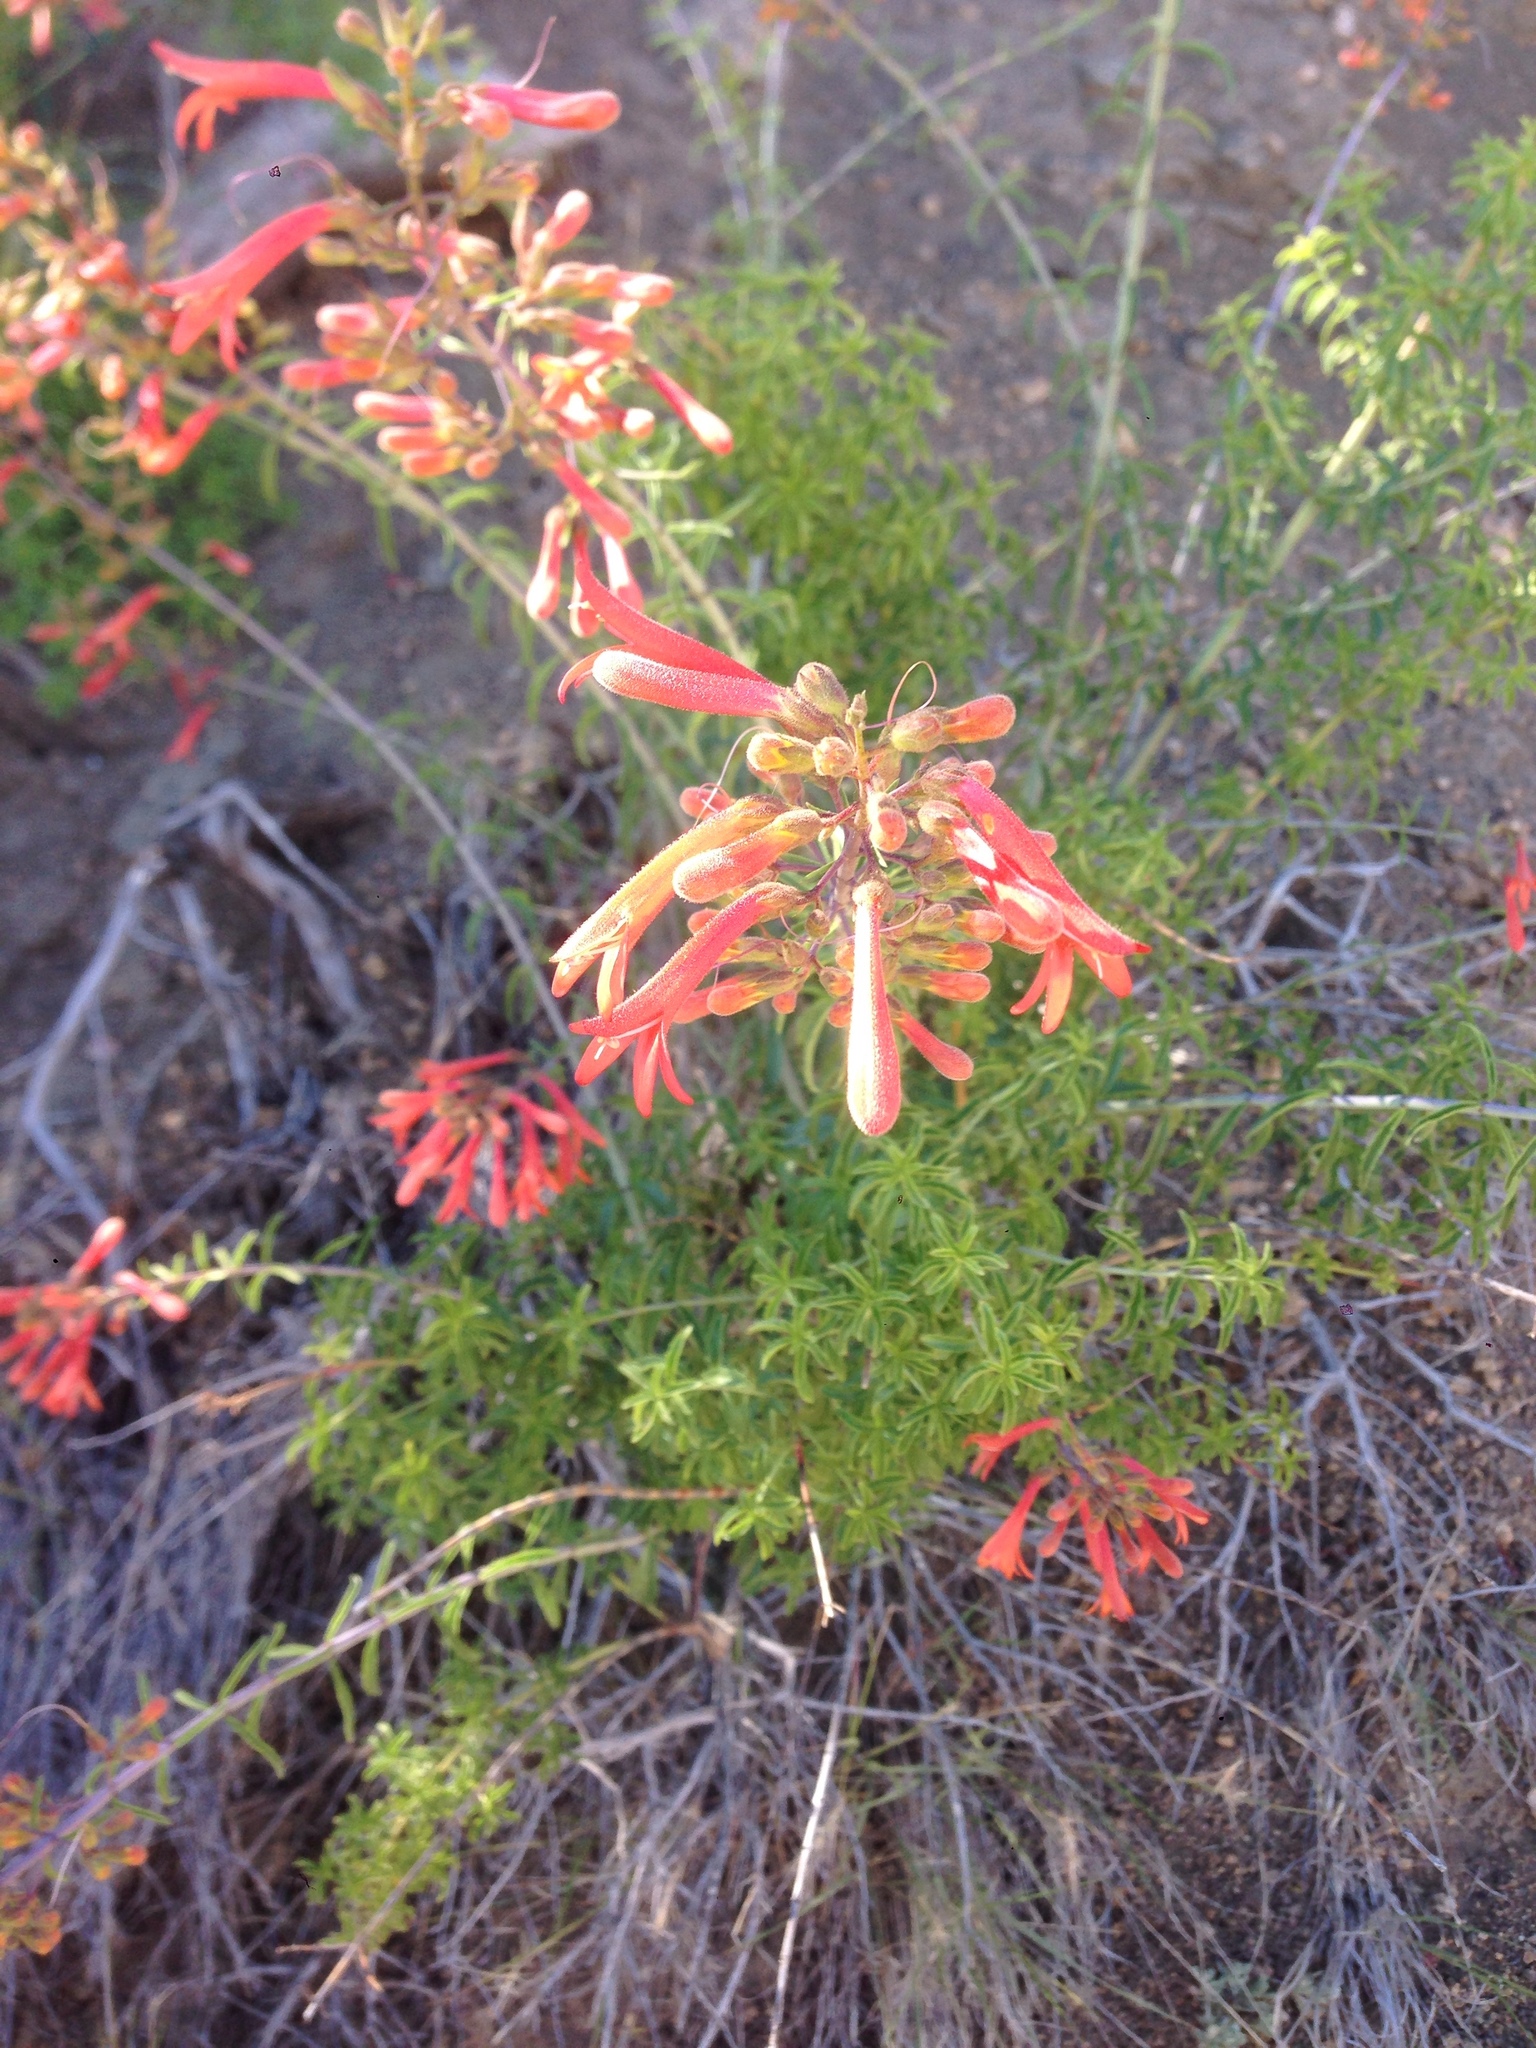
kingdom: Plantae
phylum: Tracheophyta
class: Magnoliopsida
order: Lamiales
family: Plantaginaceae
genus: Keckiella
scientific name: Keckiella ternata
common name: Scarlet keckiella
